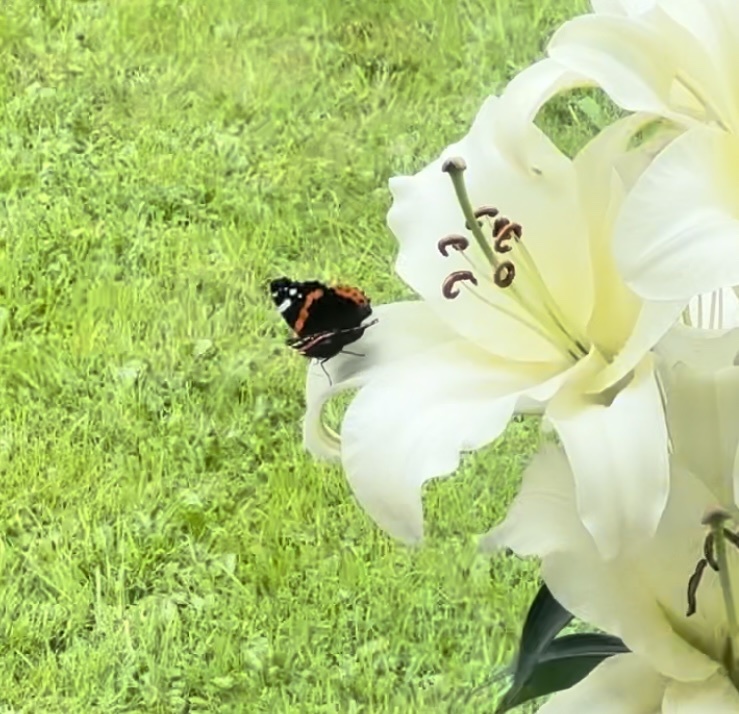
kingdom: Animalia
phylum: Arthropoda
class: Insecta
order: Lepidoptera
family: Nymphalidae
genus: Vanessa
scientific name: Vanessa atalanta
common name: Red admiral
